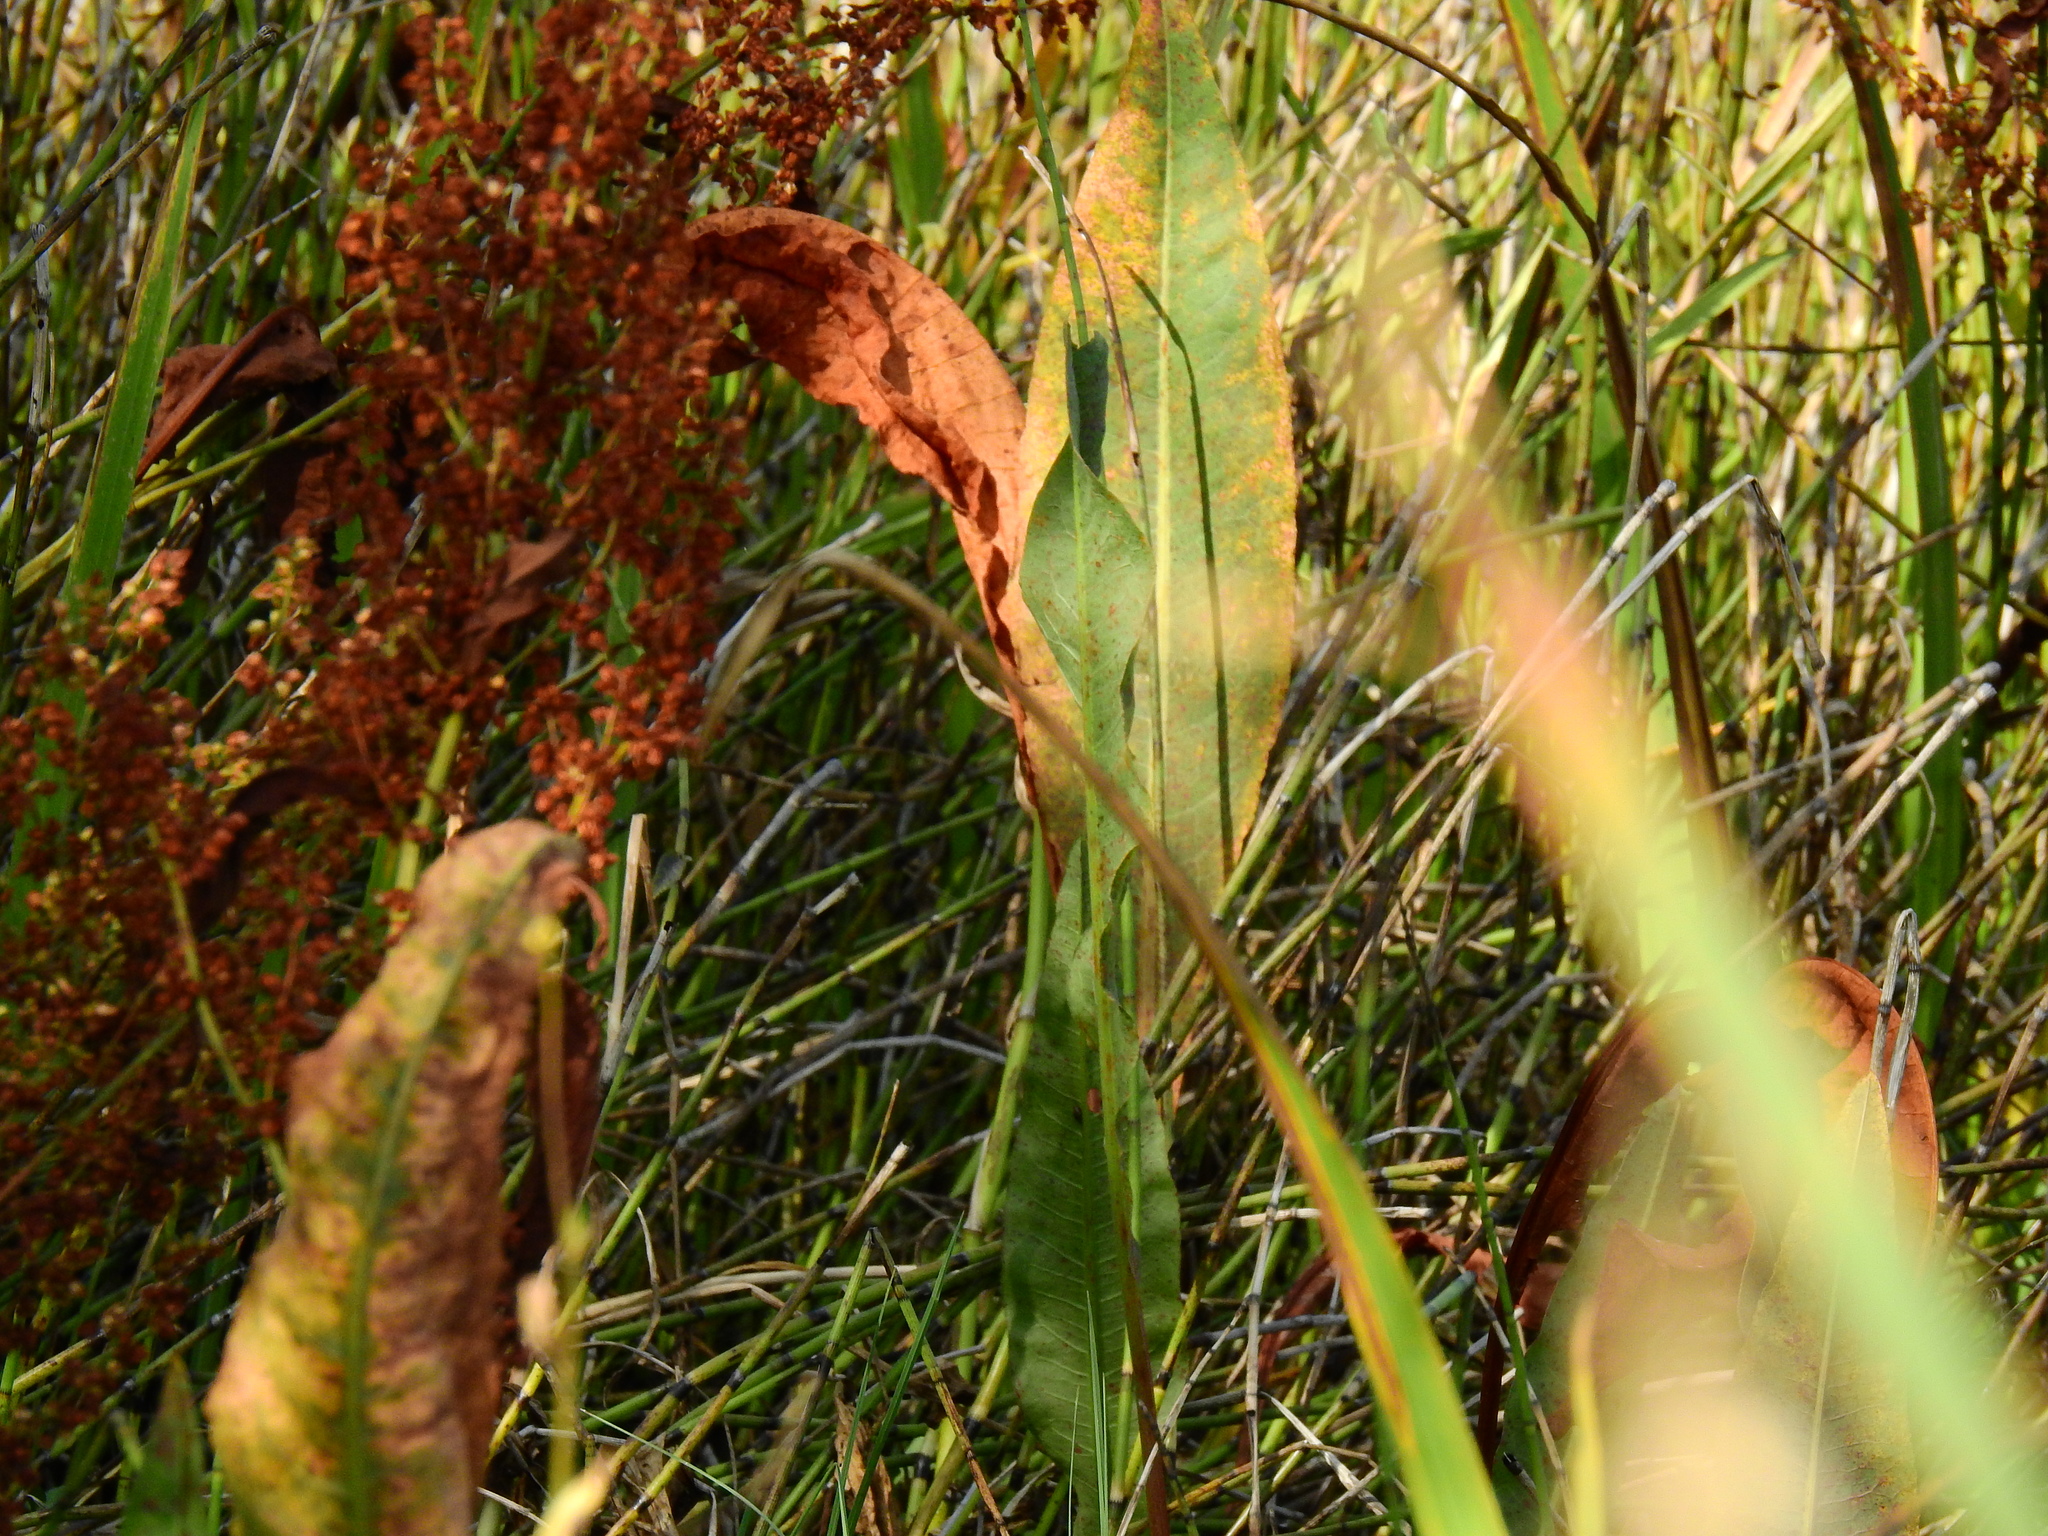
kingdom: Plantae
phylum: Tracheophyta
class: Magnoliopsida
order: Caryophyllales
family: Polygonaceae
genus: Rumex
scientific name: Rumex hydrolapathum
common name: Water dock
